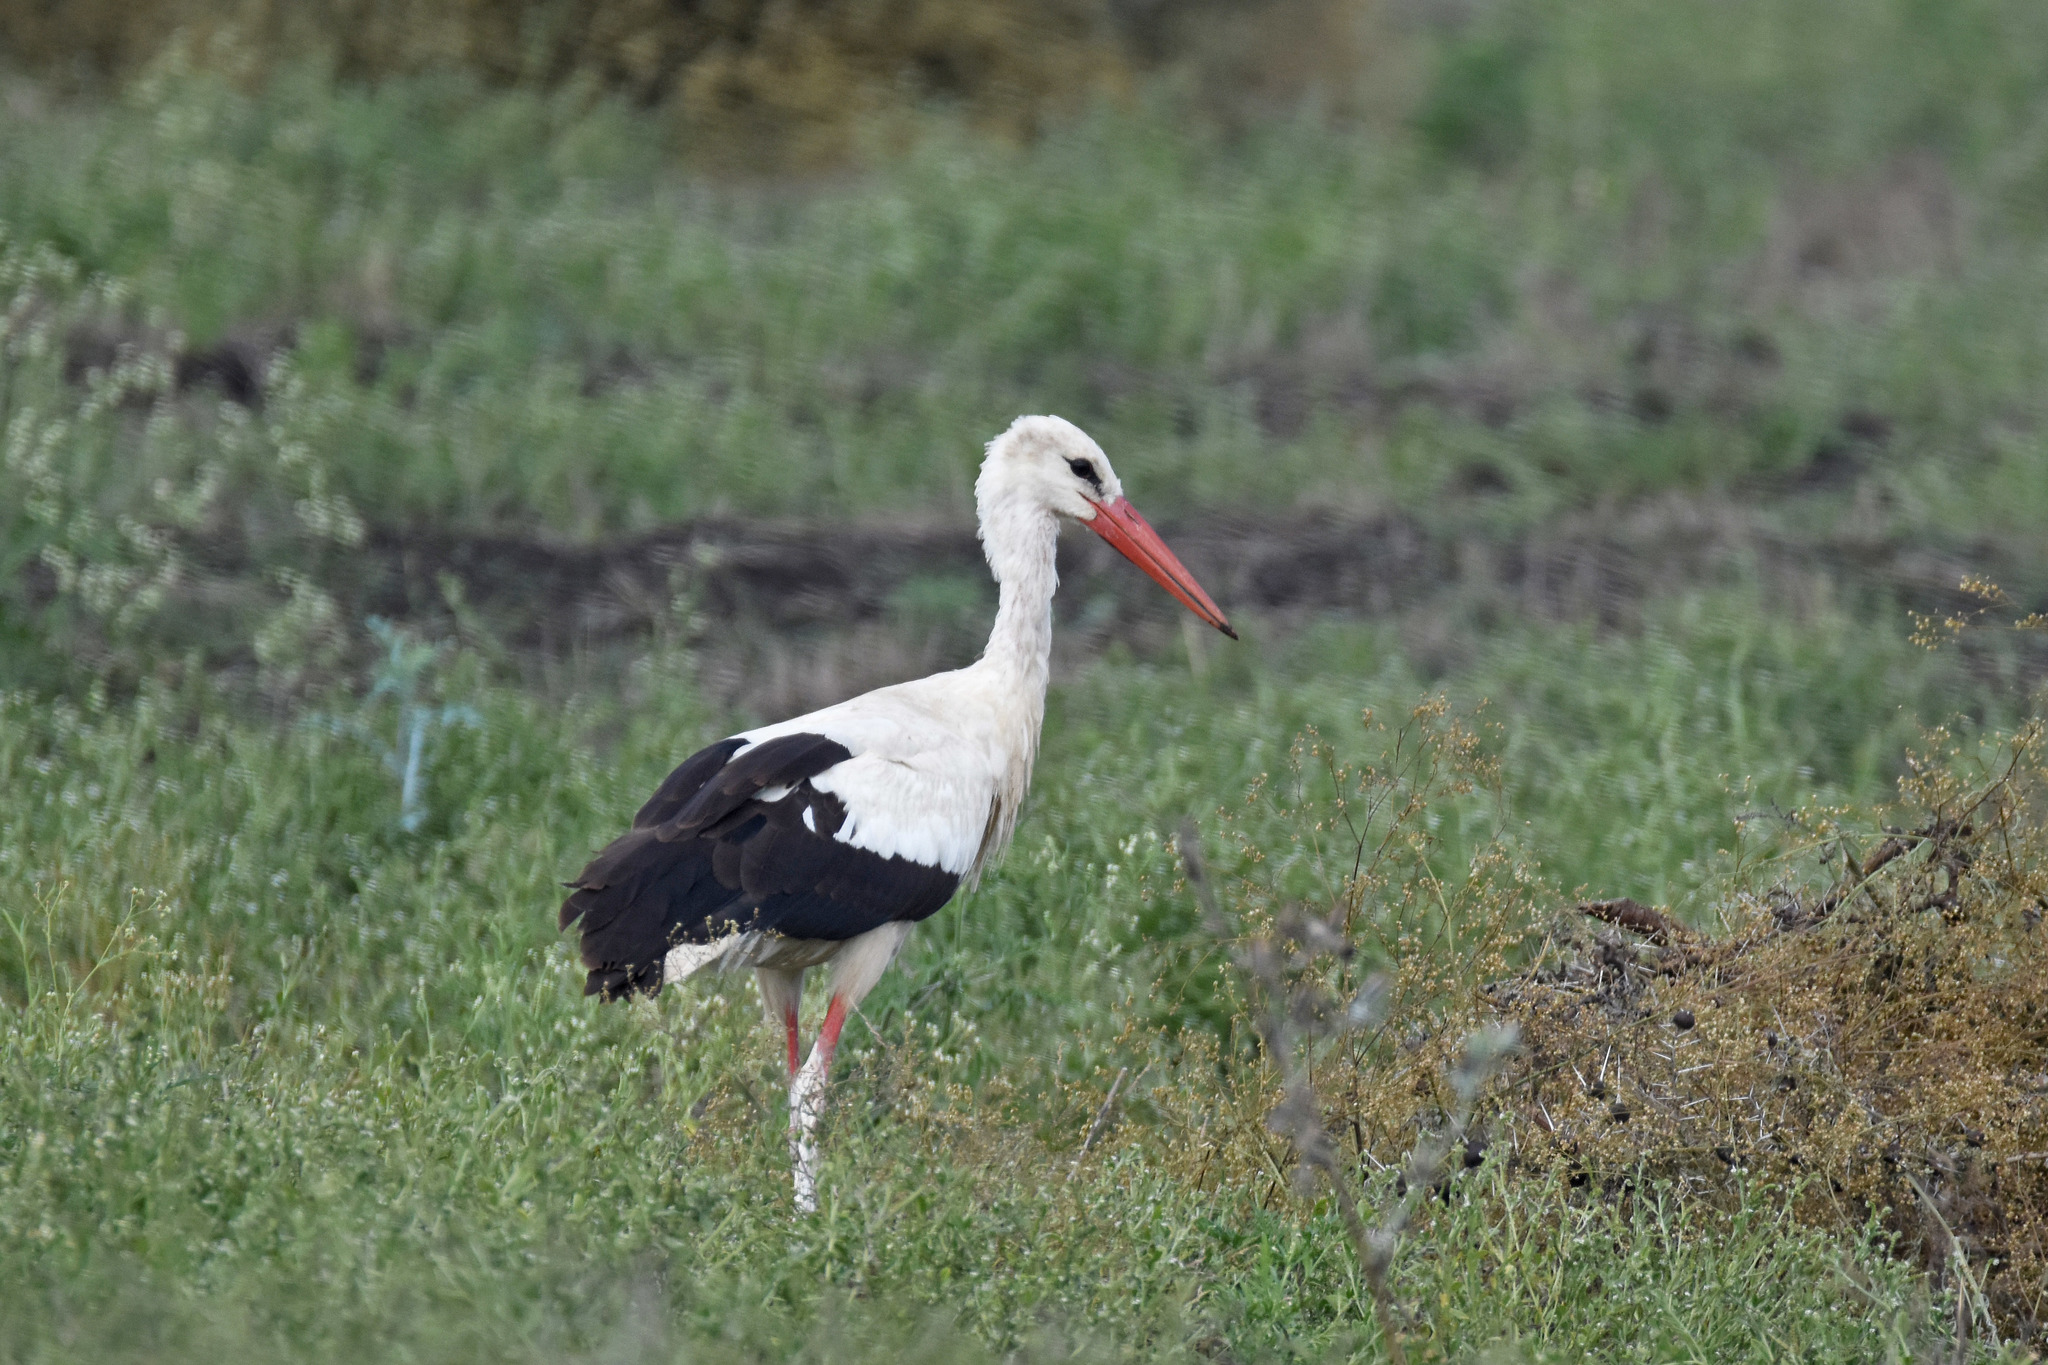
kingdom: Animalia
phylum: Chordata
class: Aves
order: Ciconiiformes
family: Ciconiidae
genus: Ciconia
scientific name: Ciconia ciconia
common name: White stork
